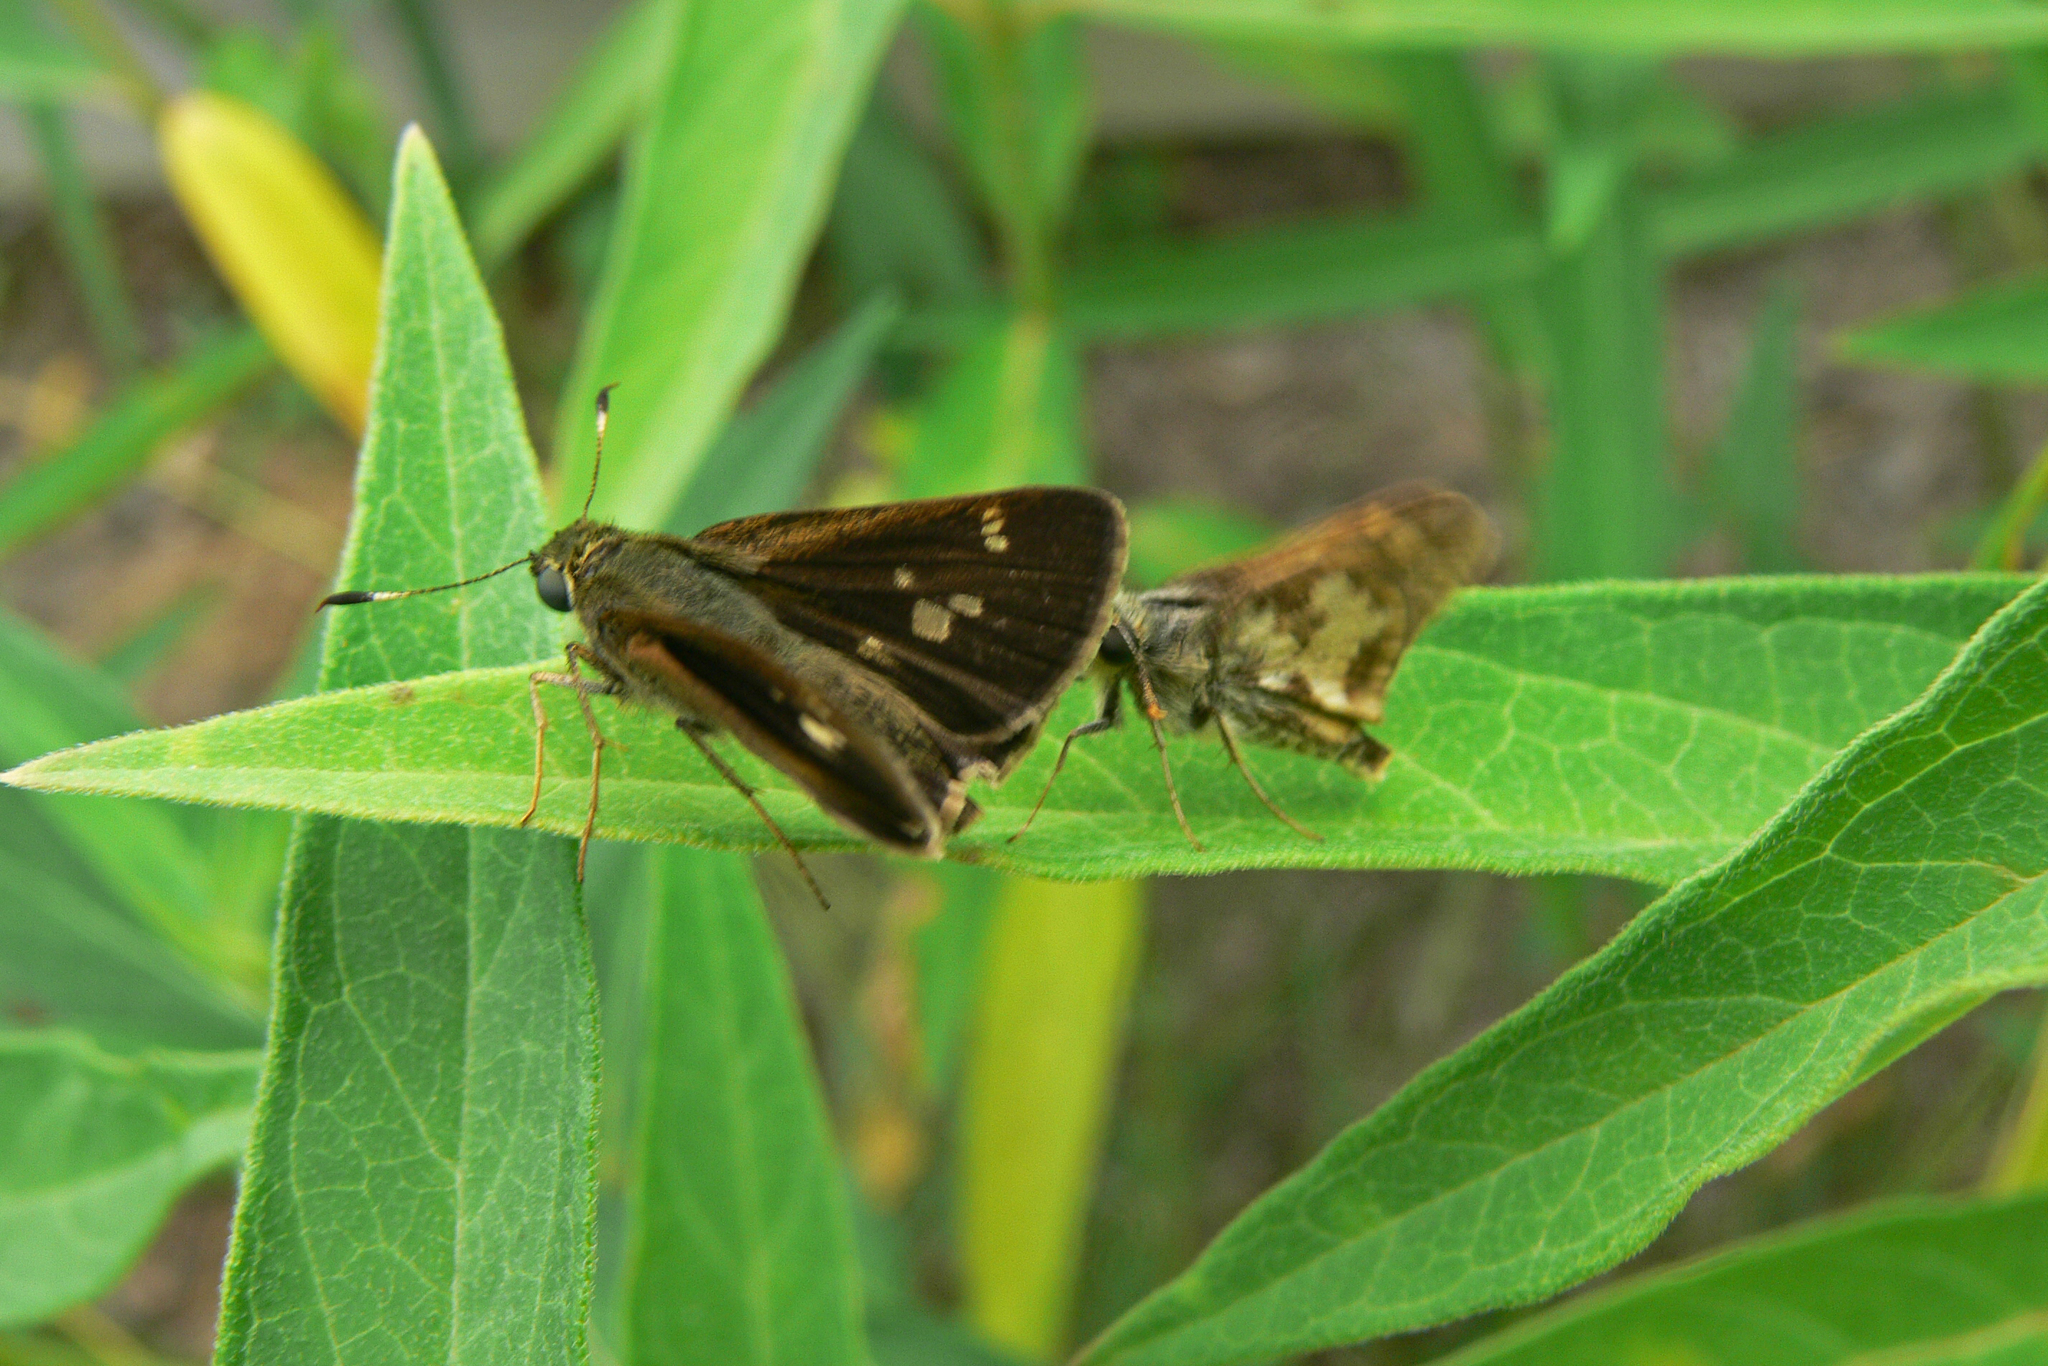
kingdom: Animalia
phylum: Arthropoda
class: Insecta
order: Lepidoptera
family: Hesperiidae
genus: Polites
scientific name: Polites coras
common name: Peck's skipper
